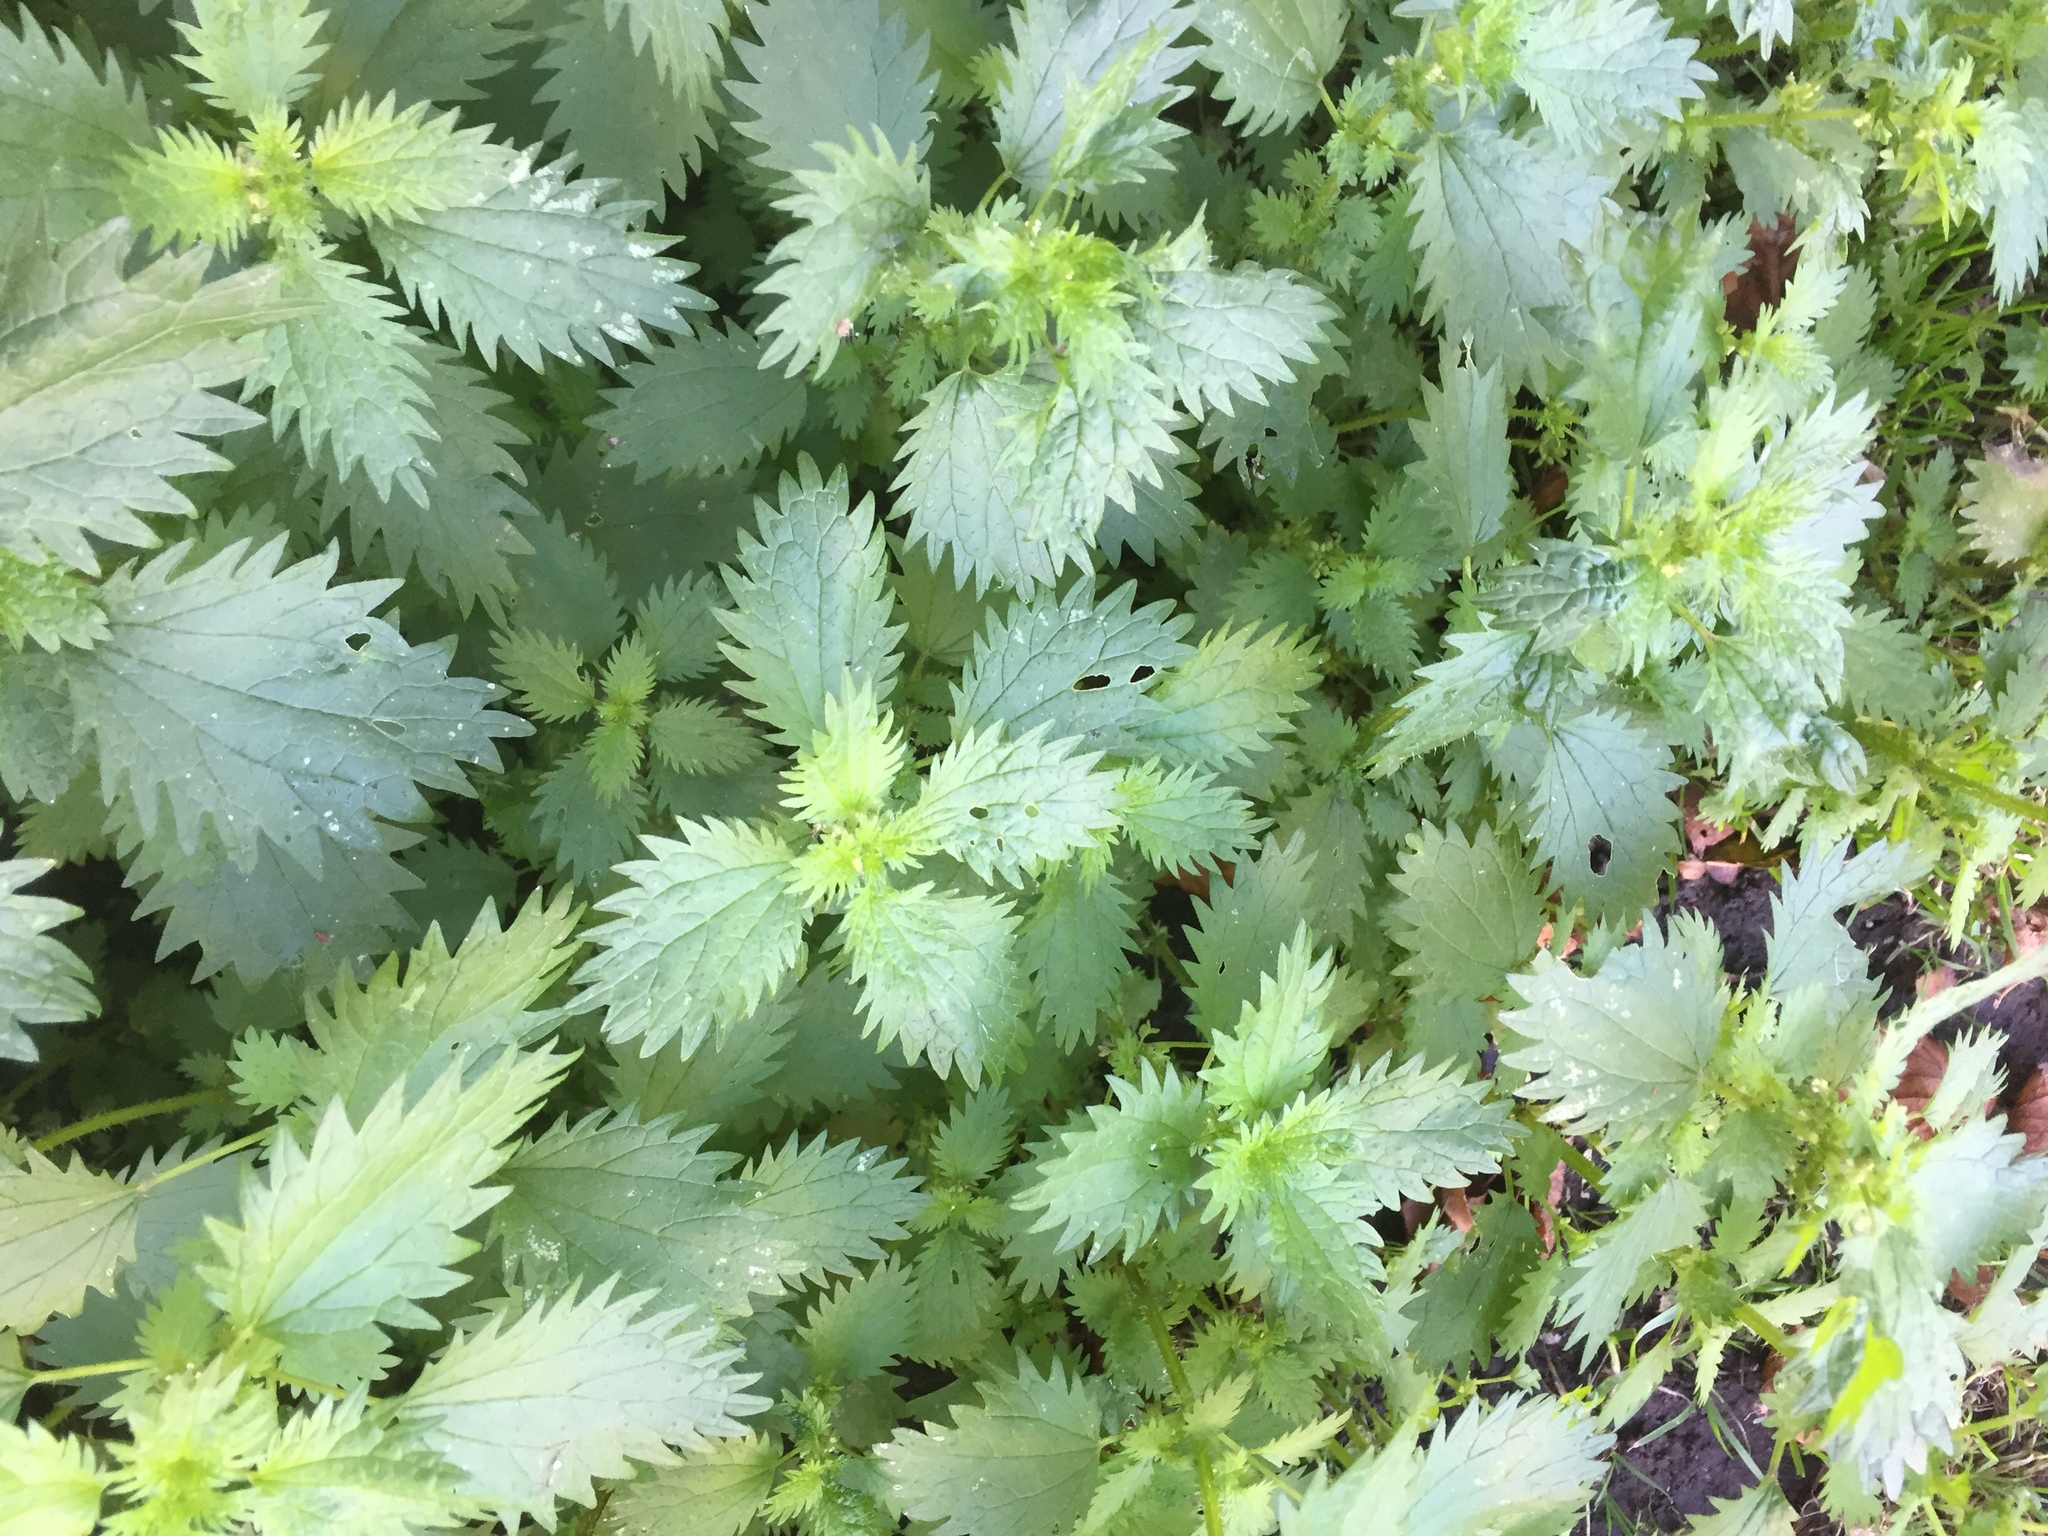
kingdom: Plantae
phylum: Tracheophyta
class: Magnoliopsida
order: Rosales
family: Urticaceae
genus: Urtica
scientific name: Urtica urens
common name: Dwarf nettle
